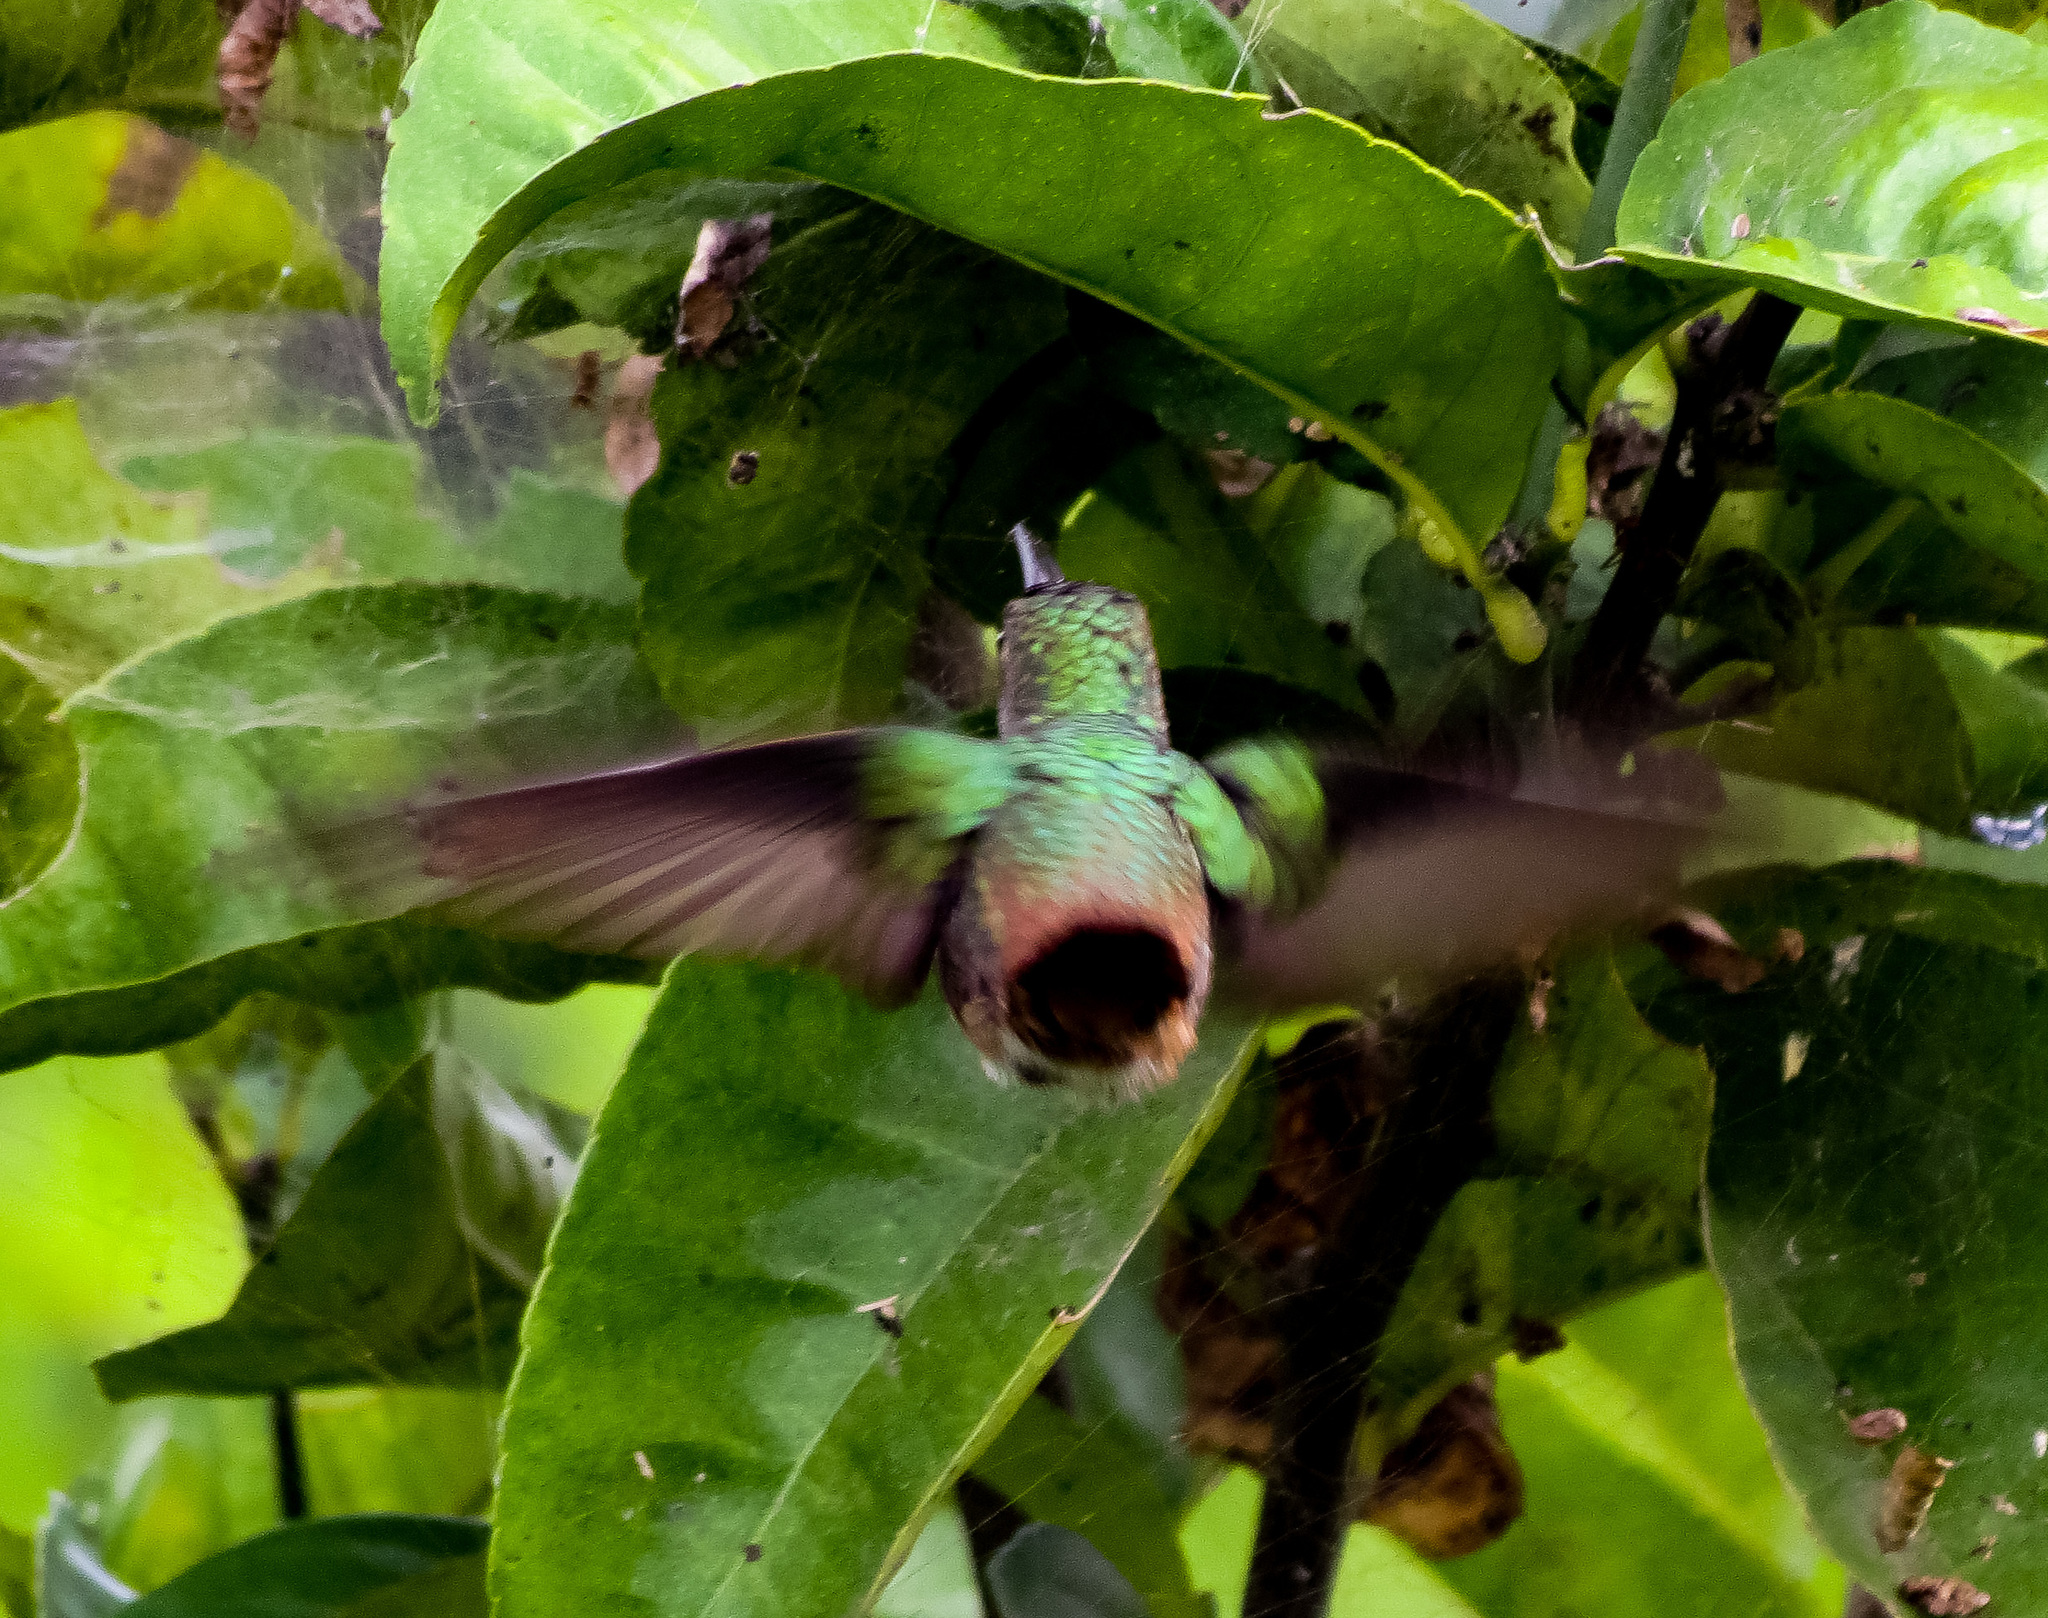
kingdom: Animalia
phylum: Chordata
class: Aves
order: Apodiformes
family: Trochilidae
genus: Amazilia
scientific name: Amazilia tzacatl
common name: Rufous-tailed hummingbird
